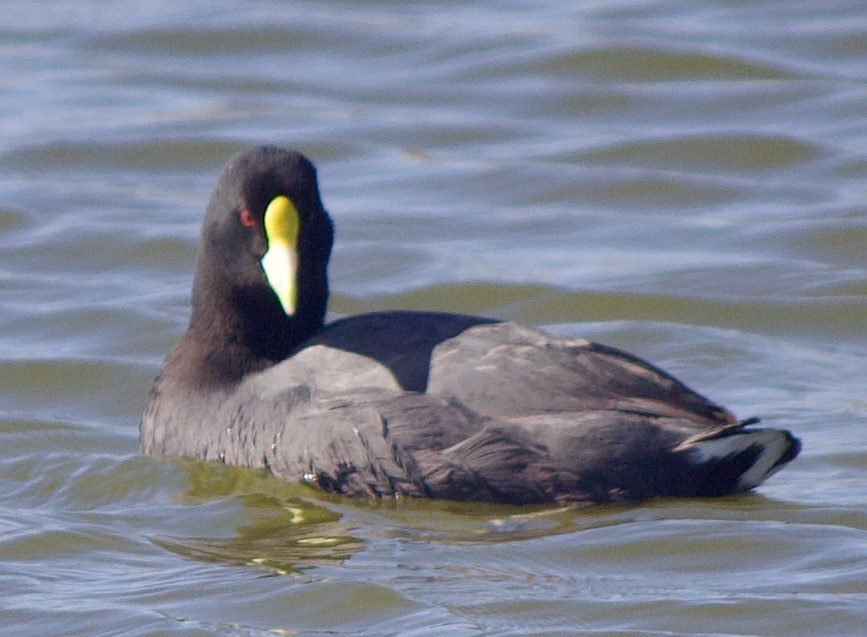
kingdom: Animalia
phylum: Chordata
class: Aves
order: Gruiformes
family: Rallidae
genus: Fulica
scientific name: Fulica leucoptera
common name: White-winged coot
